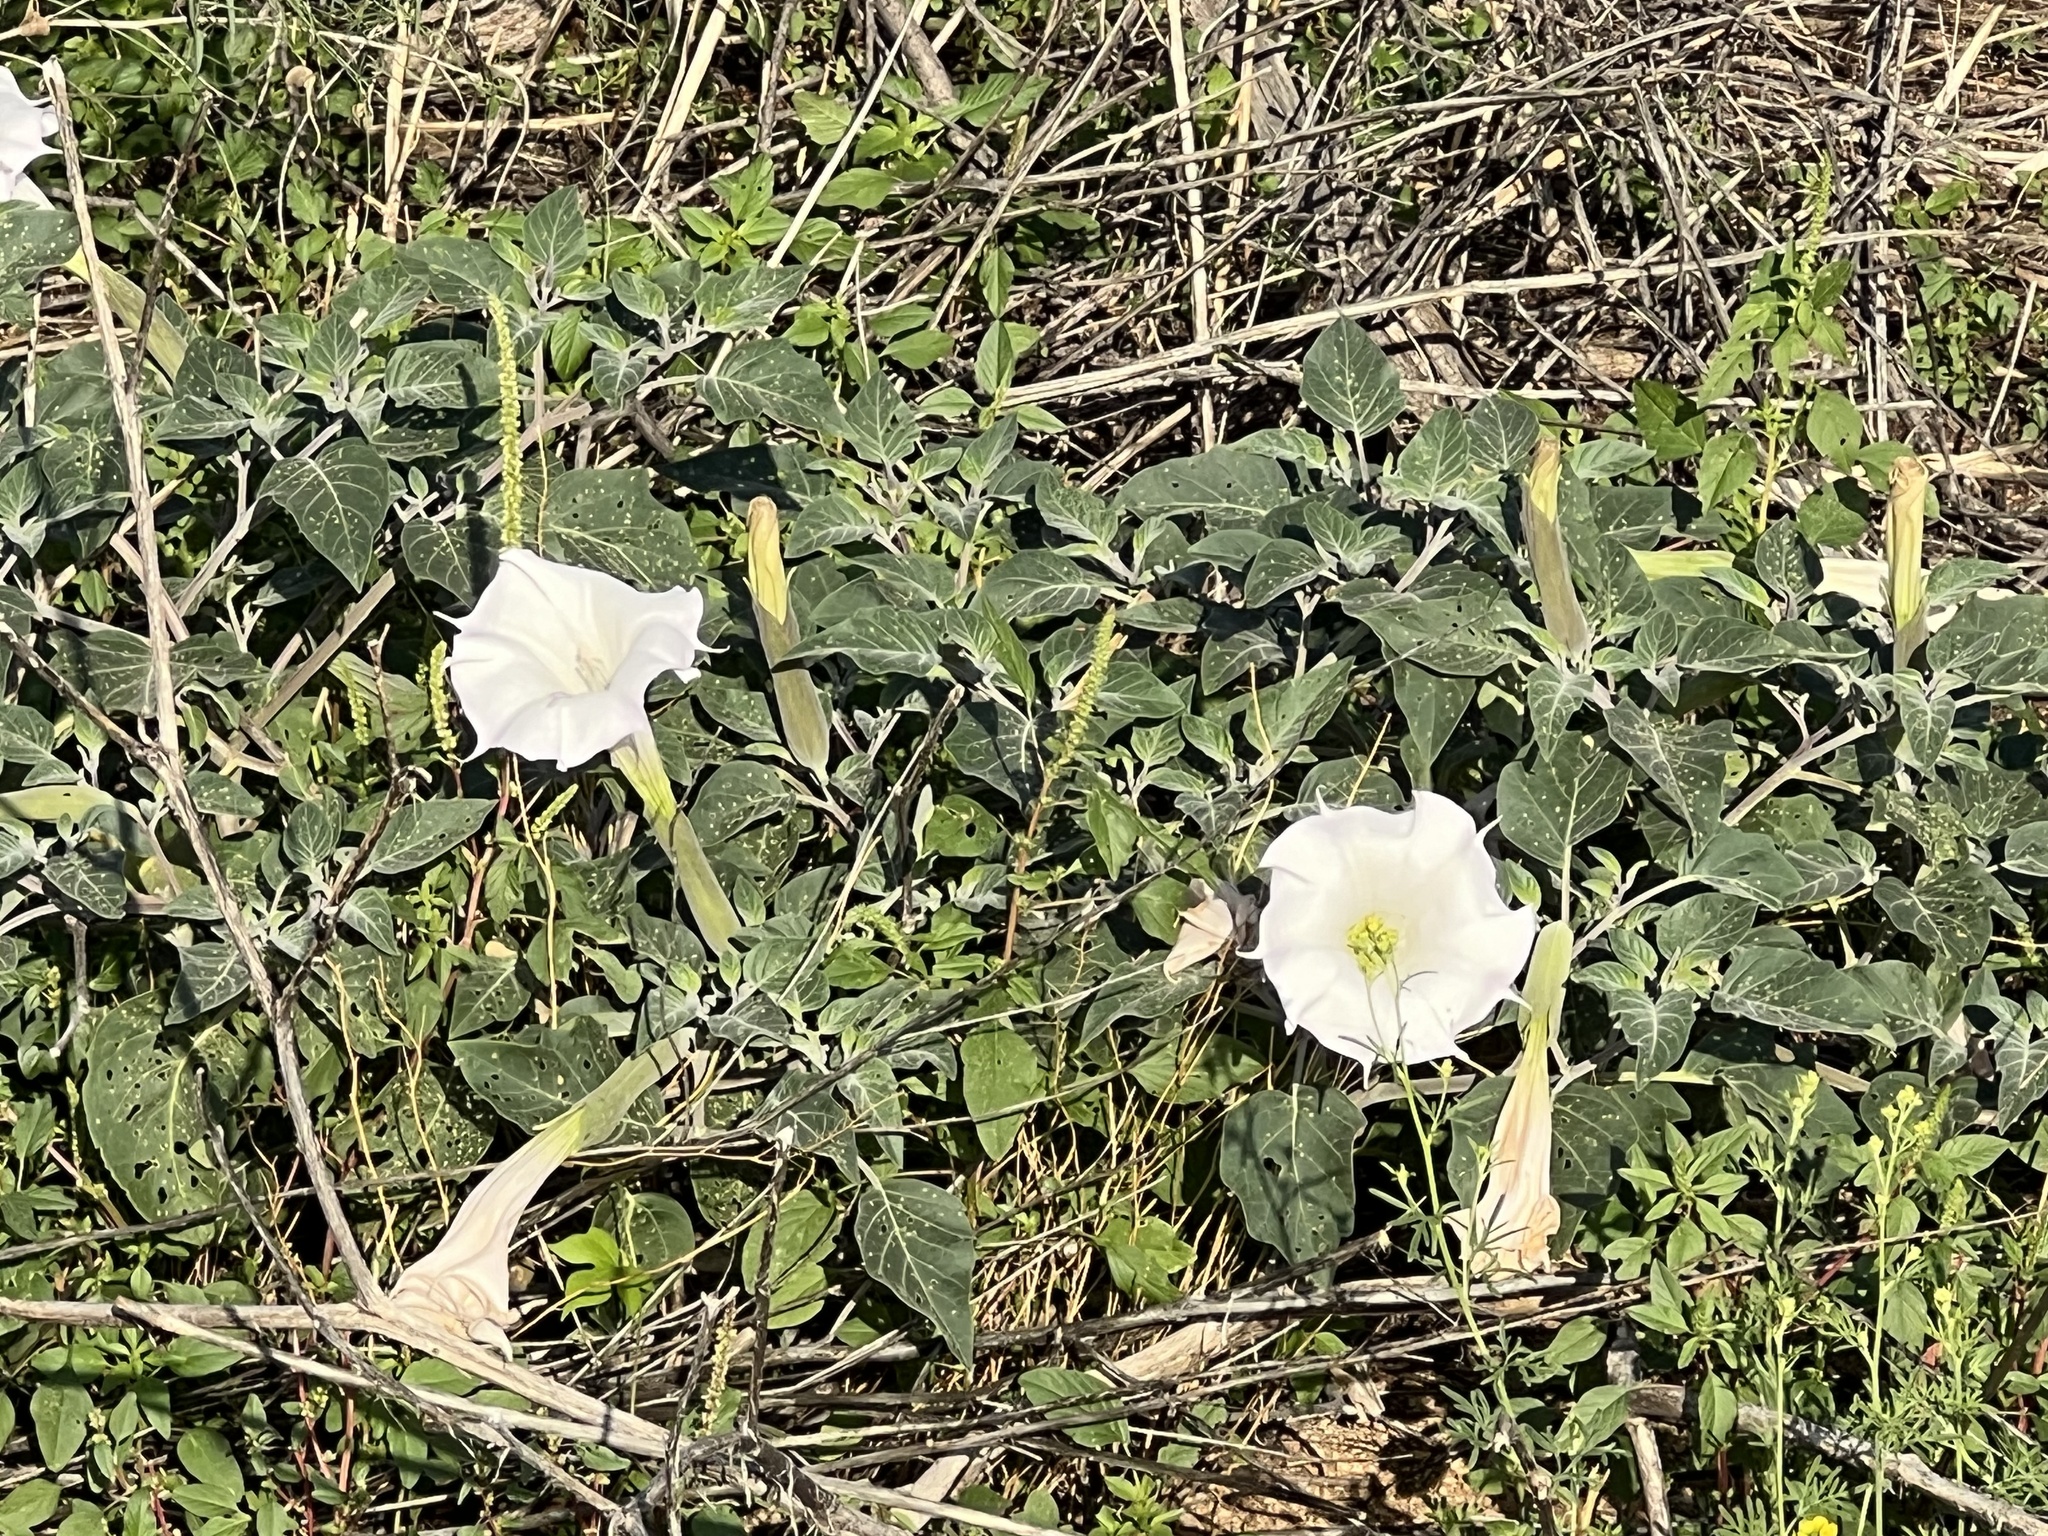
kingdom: Plantae
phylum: Tracheophyta
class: Magnoliopsida
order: Solanales
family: Solanaceae
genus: Datura
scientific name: Datura wrightii
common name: Sacred thorn-apple
